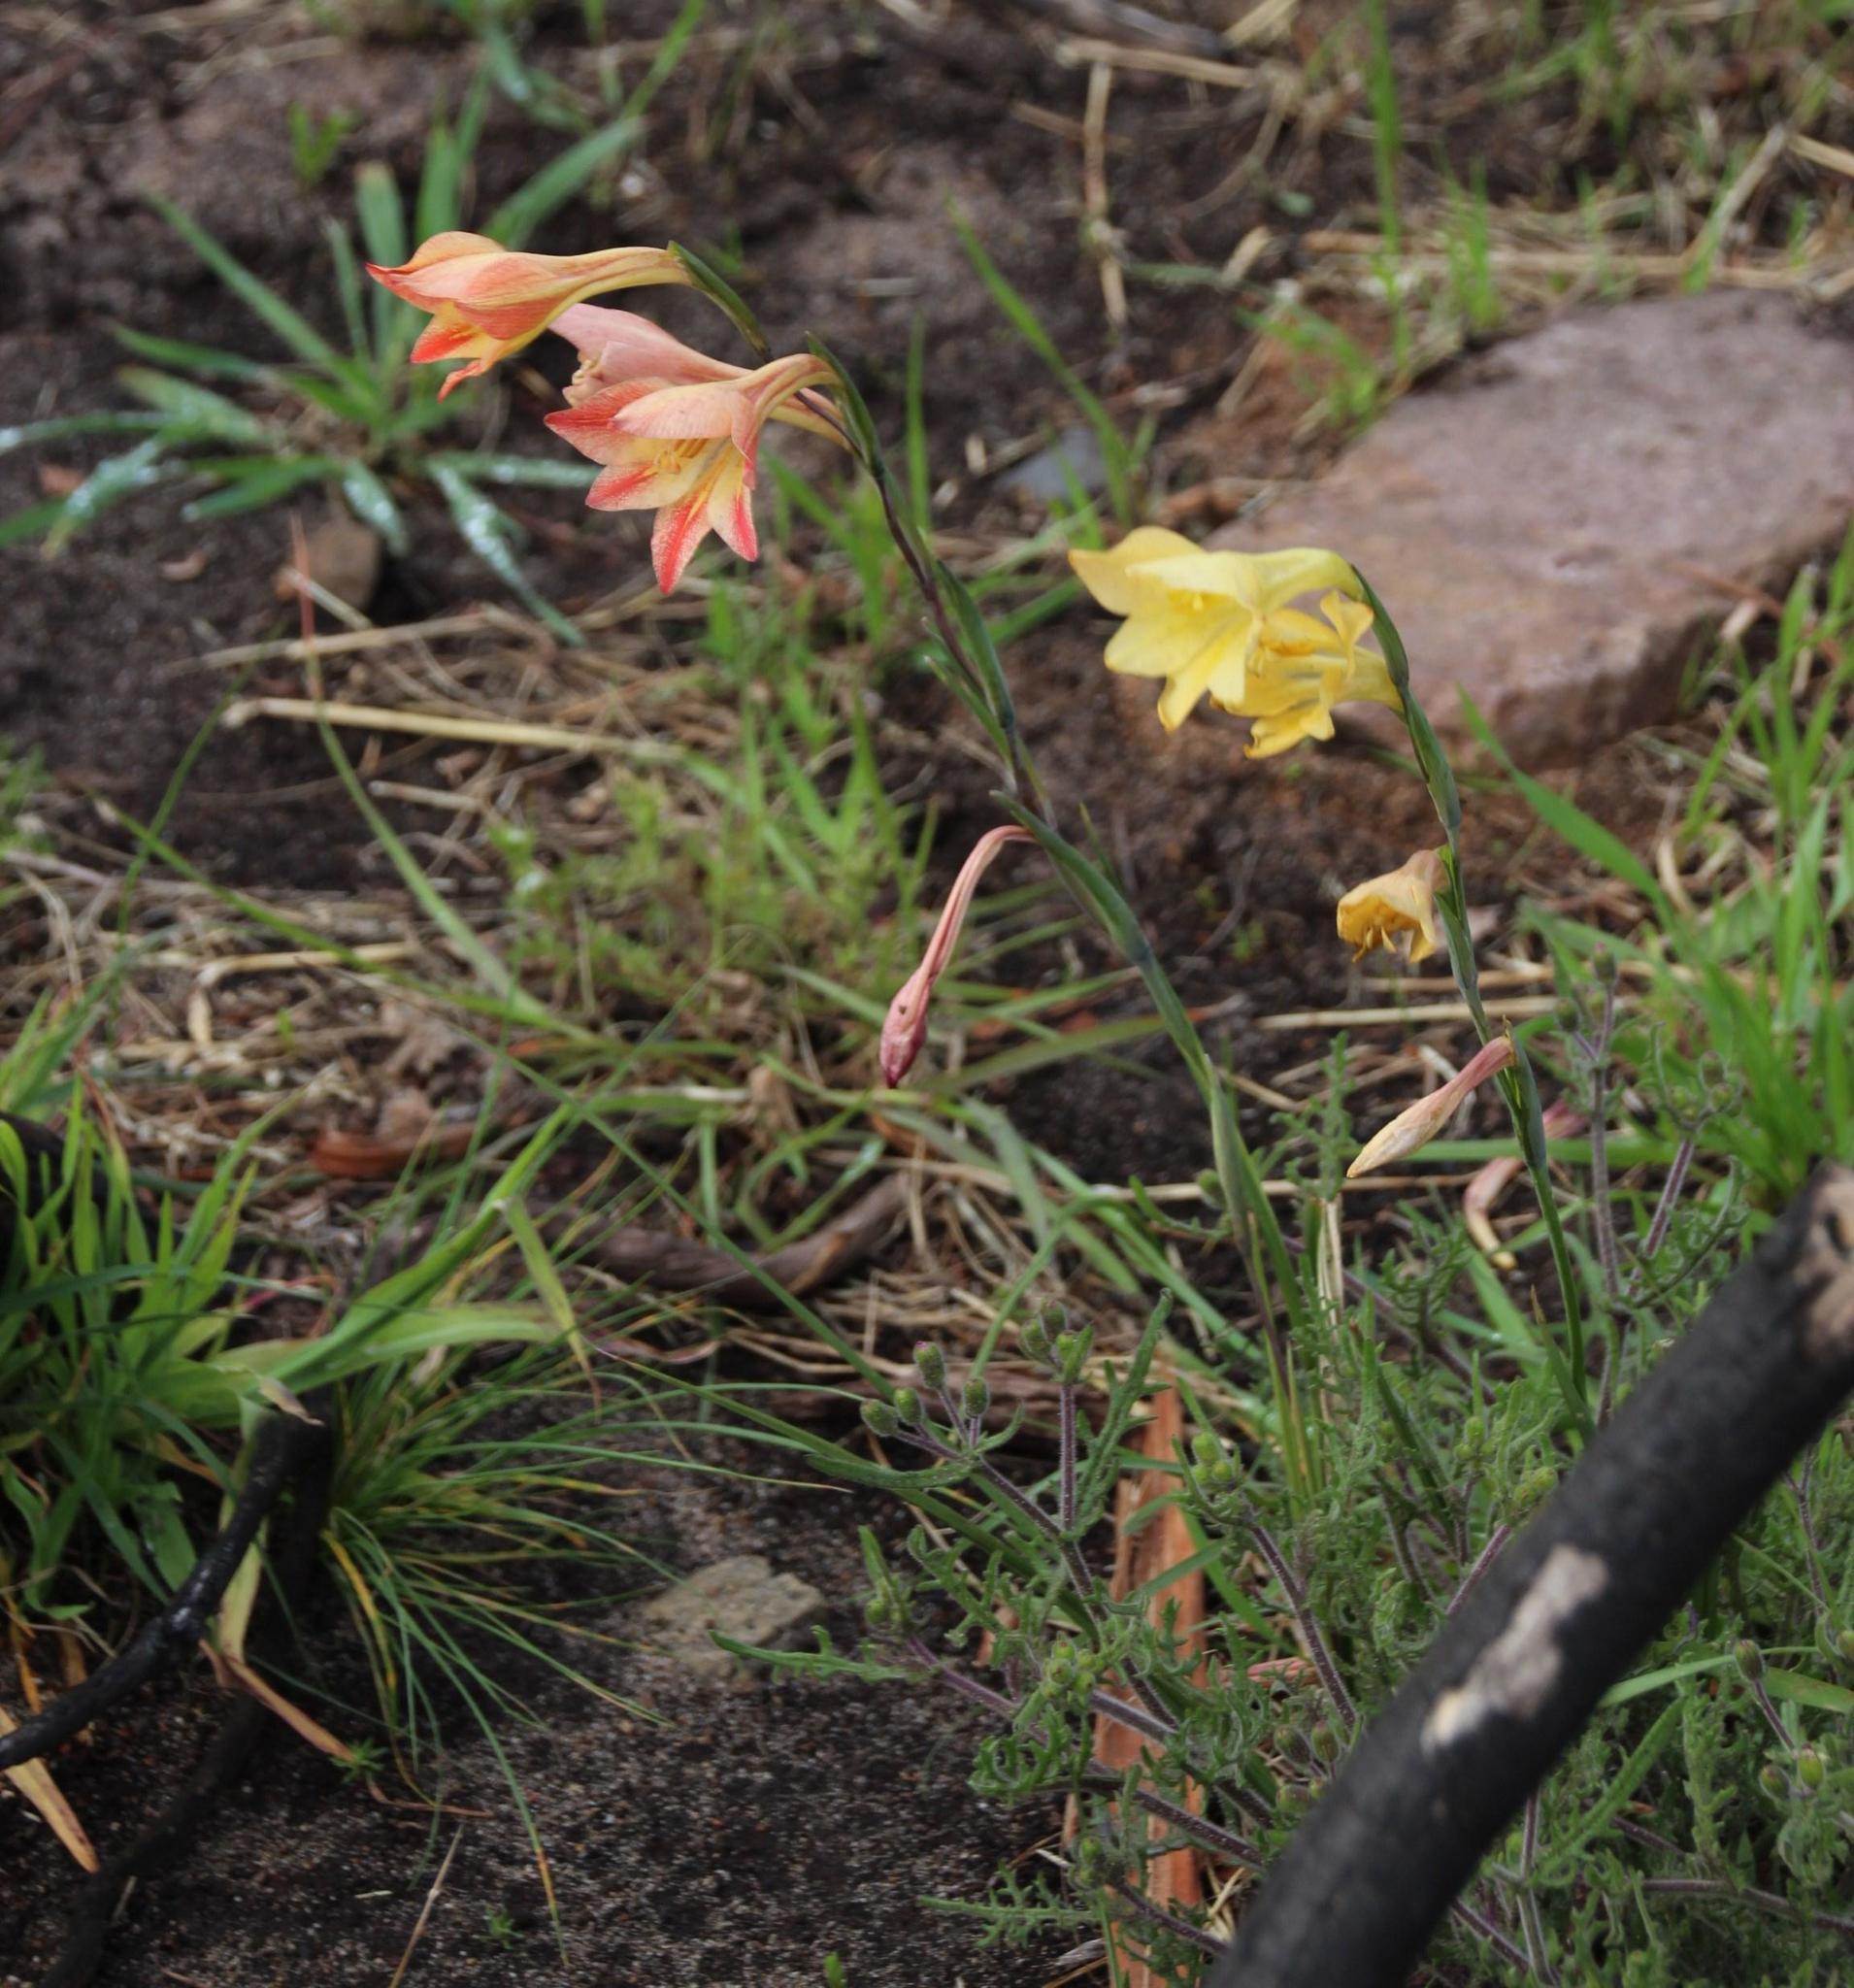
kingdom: Plantae
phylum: Tracheophyta
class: Liliopsida
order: Asparagales
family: Iridaceae
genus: Gladiolus
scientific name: Gladiolus
